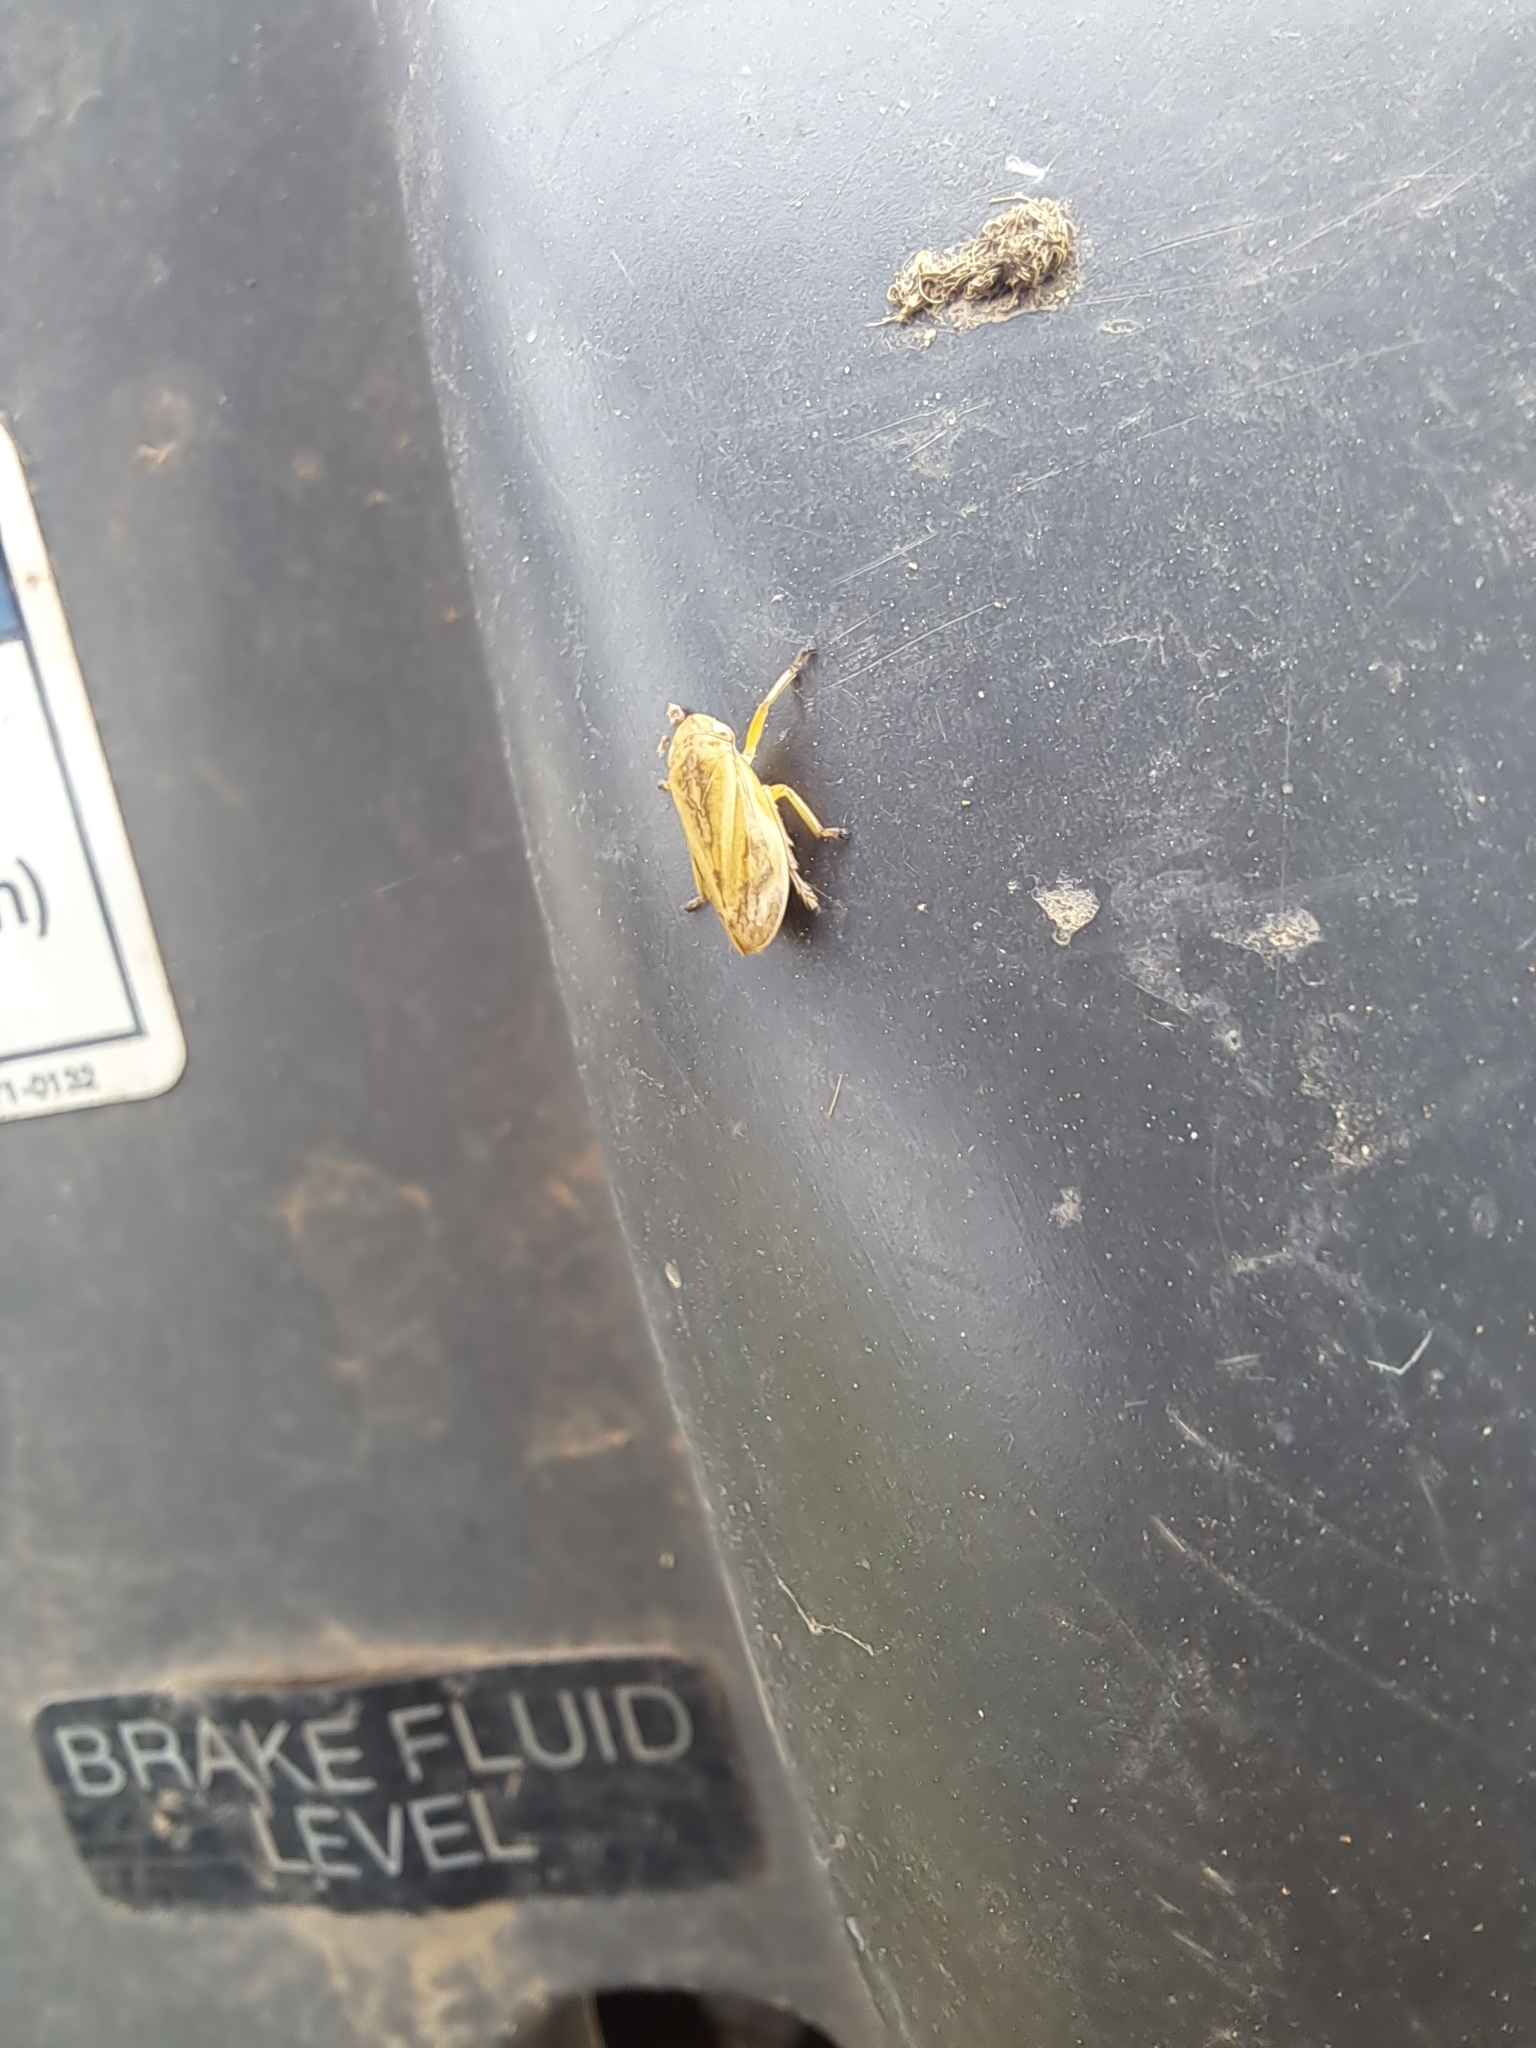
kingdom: Animalia
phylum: Arthropoda
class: Insecta
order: Hemiptera
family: Aphrophoridae
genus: Philaenus
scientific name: Philaenus spumarius
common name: Meadow spittlebug
